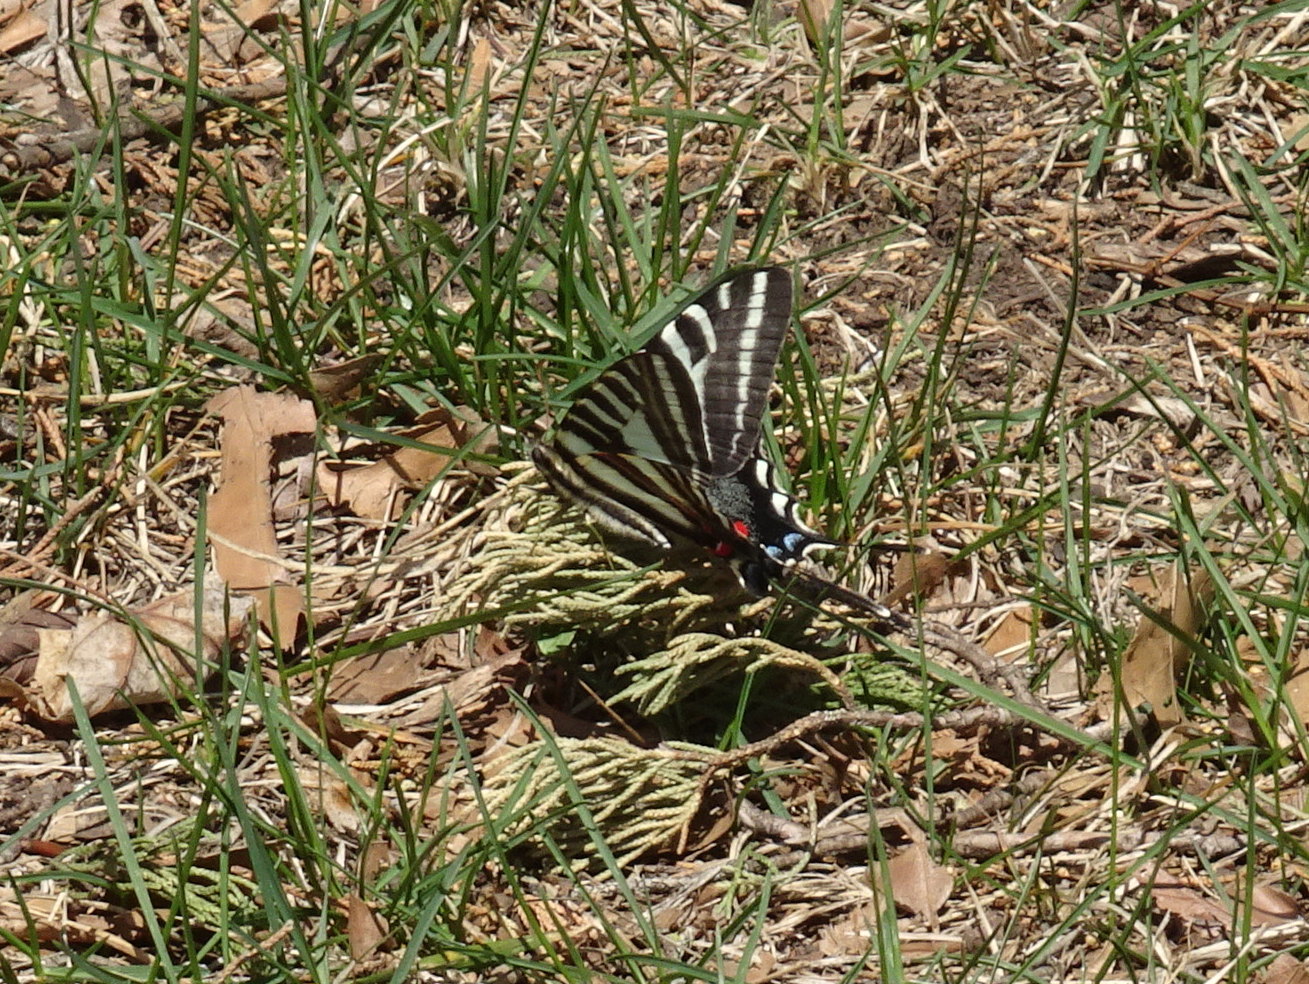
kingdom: Animalia
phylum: Arthropoda
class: Insecta
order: Lepidoptera
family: Papilionidae
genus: Protographium
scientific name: Protographium marcellus
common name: Zebra swallowtail
